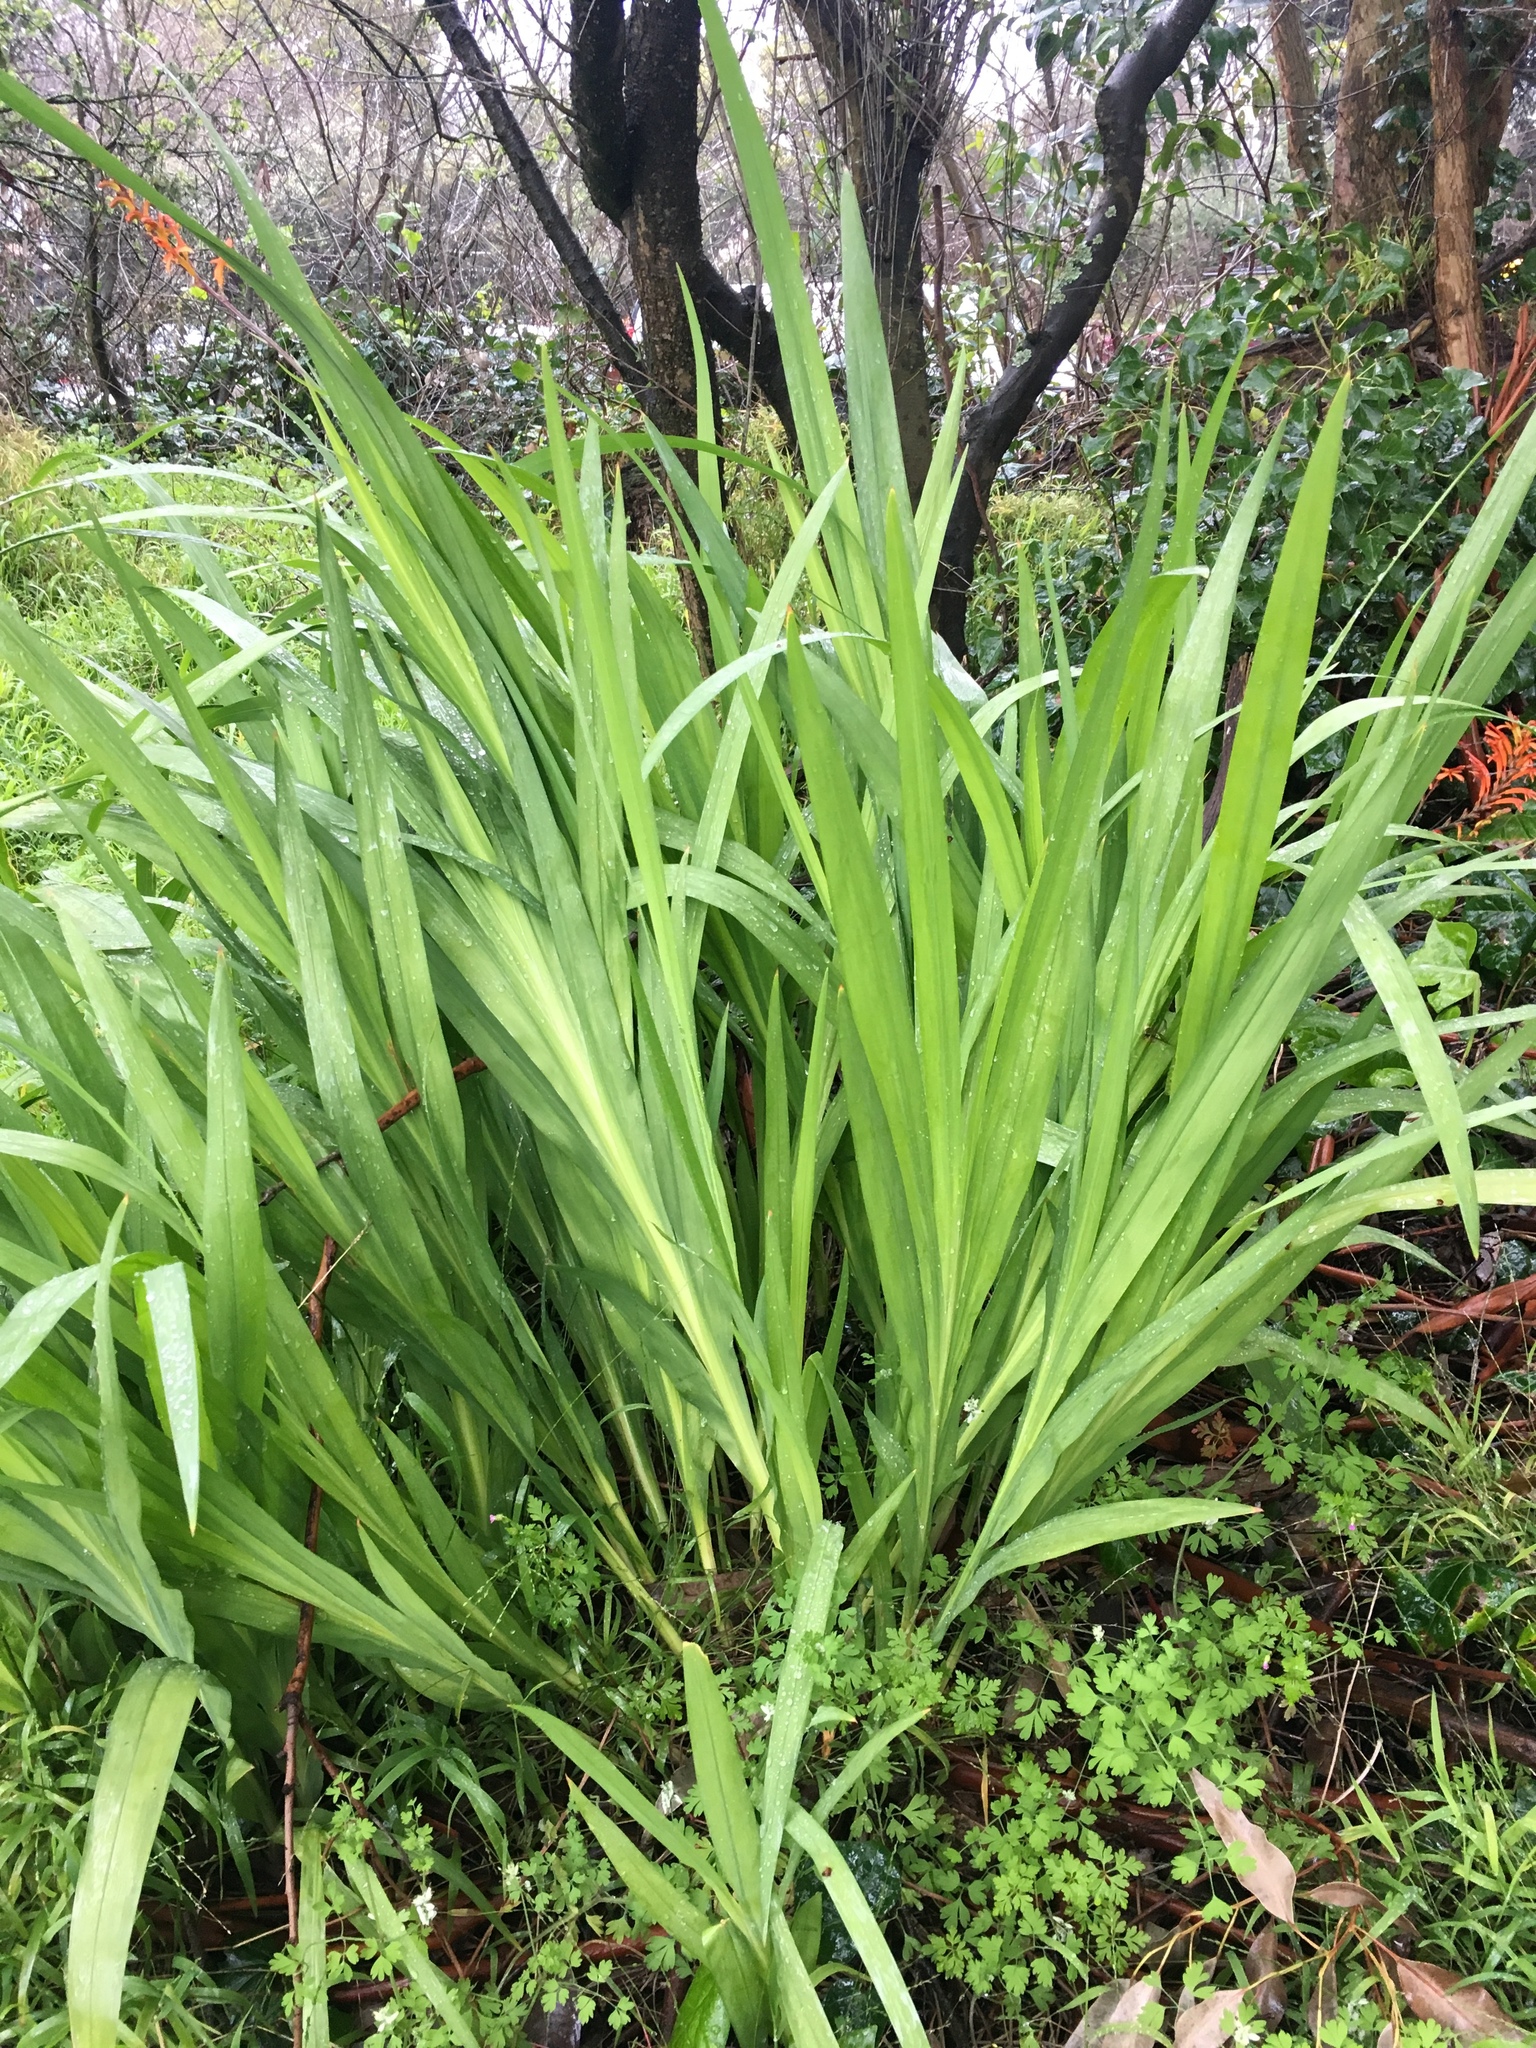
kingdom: Plantae
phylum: Tracheophyta
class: Liliopsida
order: Asparagales
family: Iridaceae
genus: Chasmanthe
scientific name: Chasmanthe floribunda
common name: African cornflag
